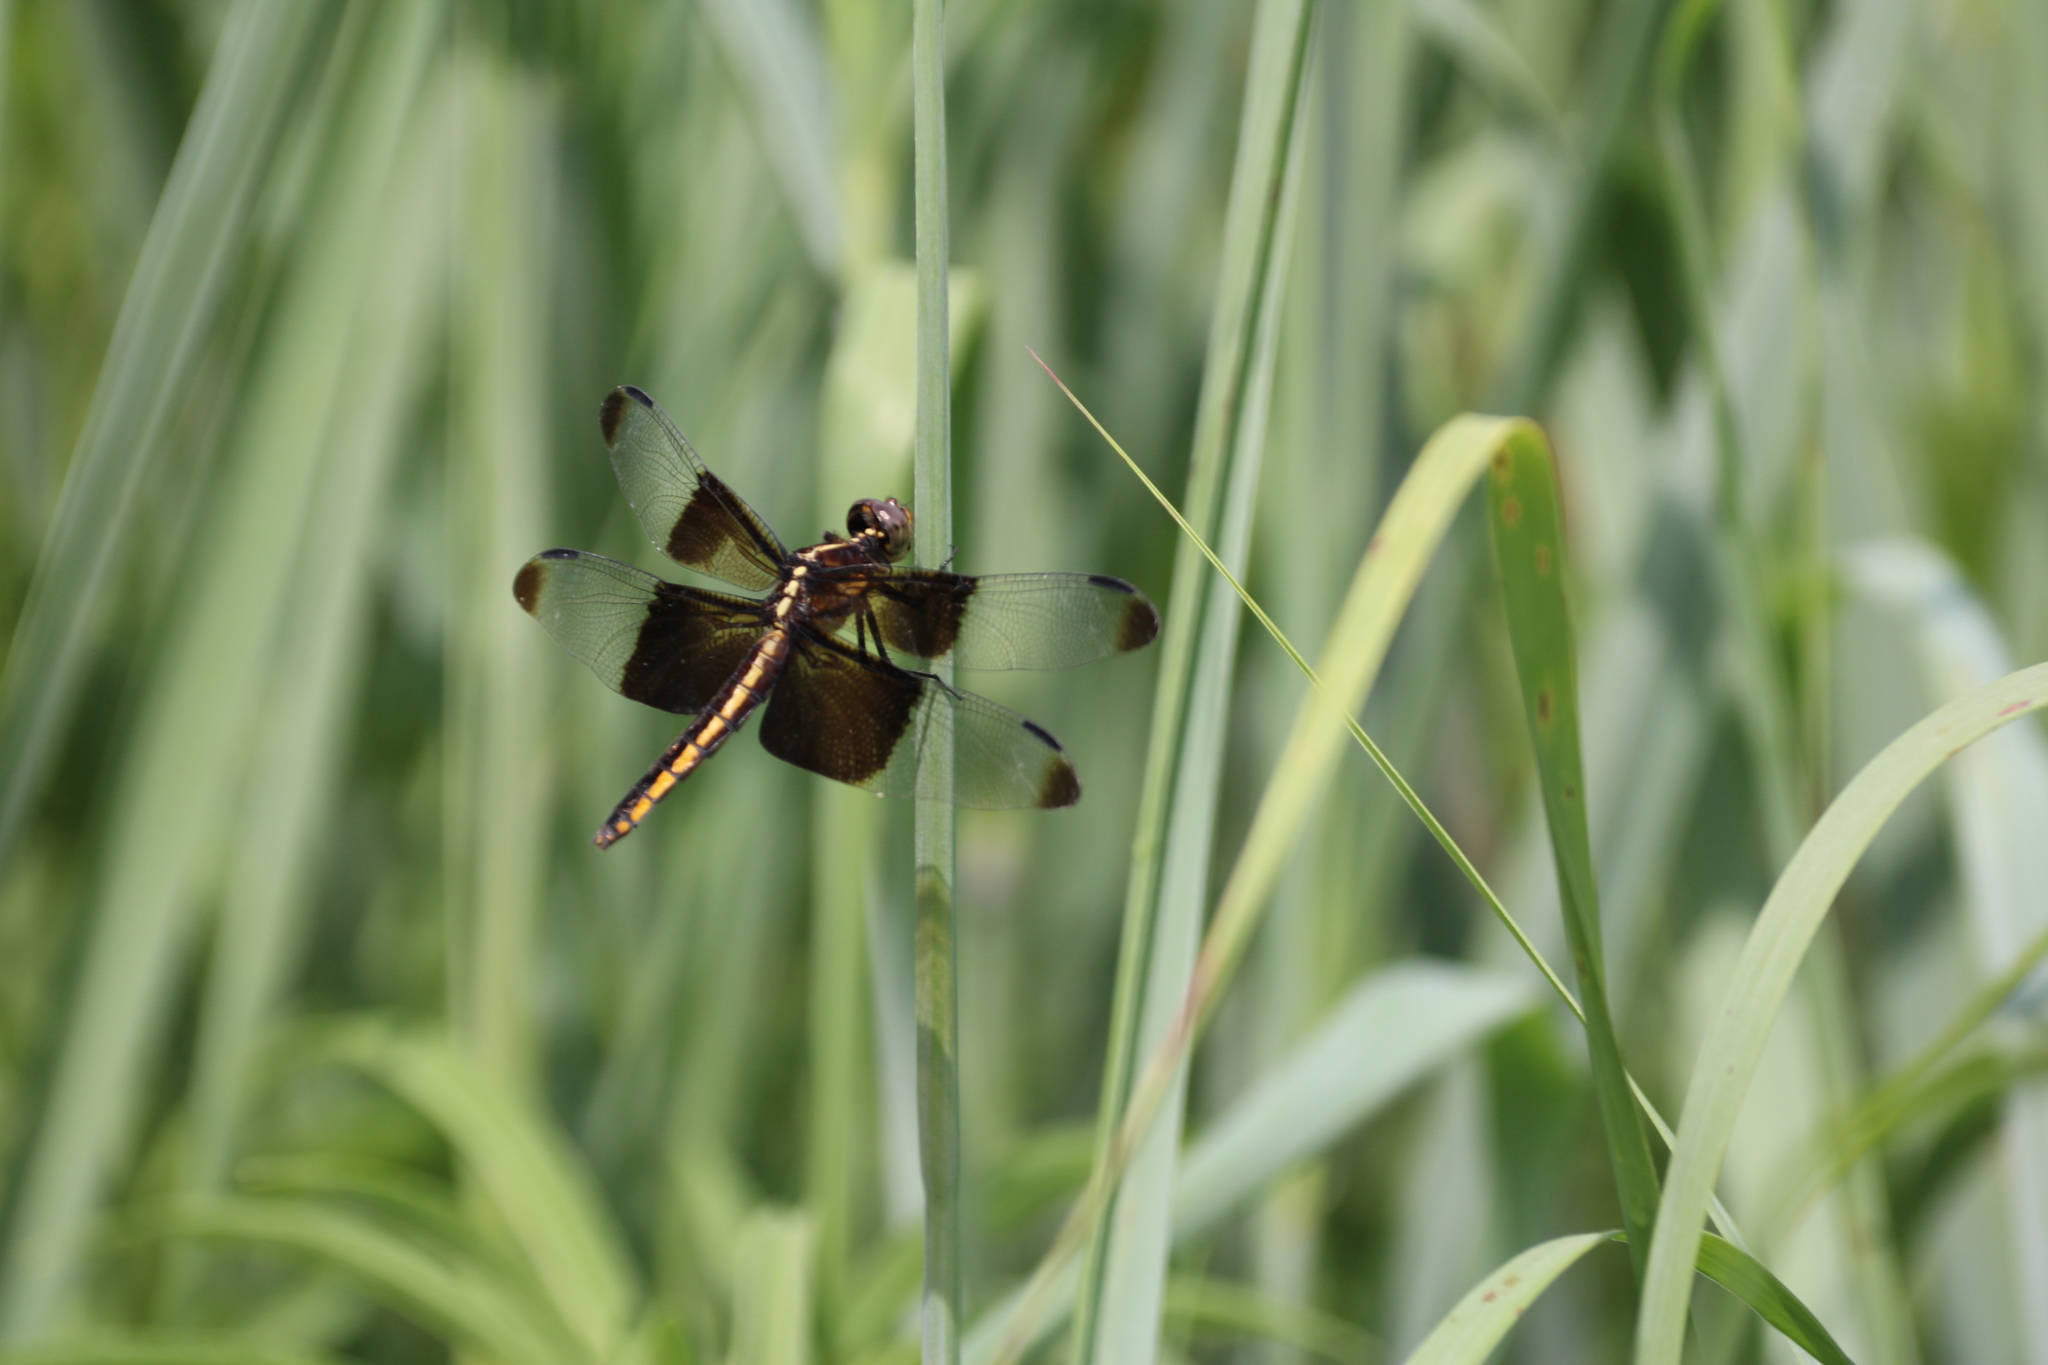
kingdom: Animalia
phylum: Arthropoda
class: Insecta
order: Odonata
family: Libellulidae
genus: Libellula
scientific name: Libellula luctuosa
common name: Widow skimmer
